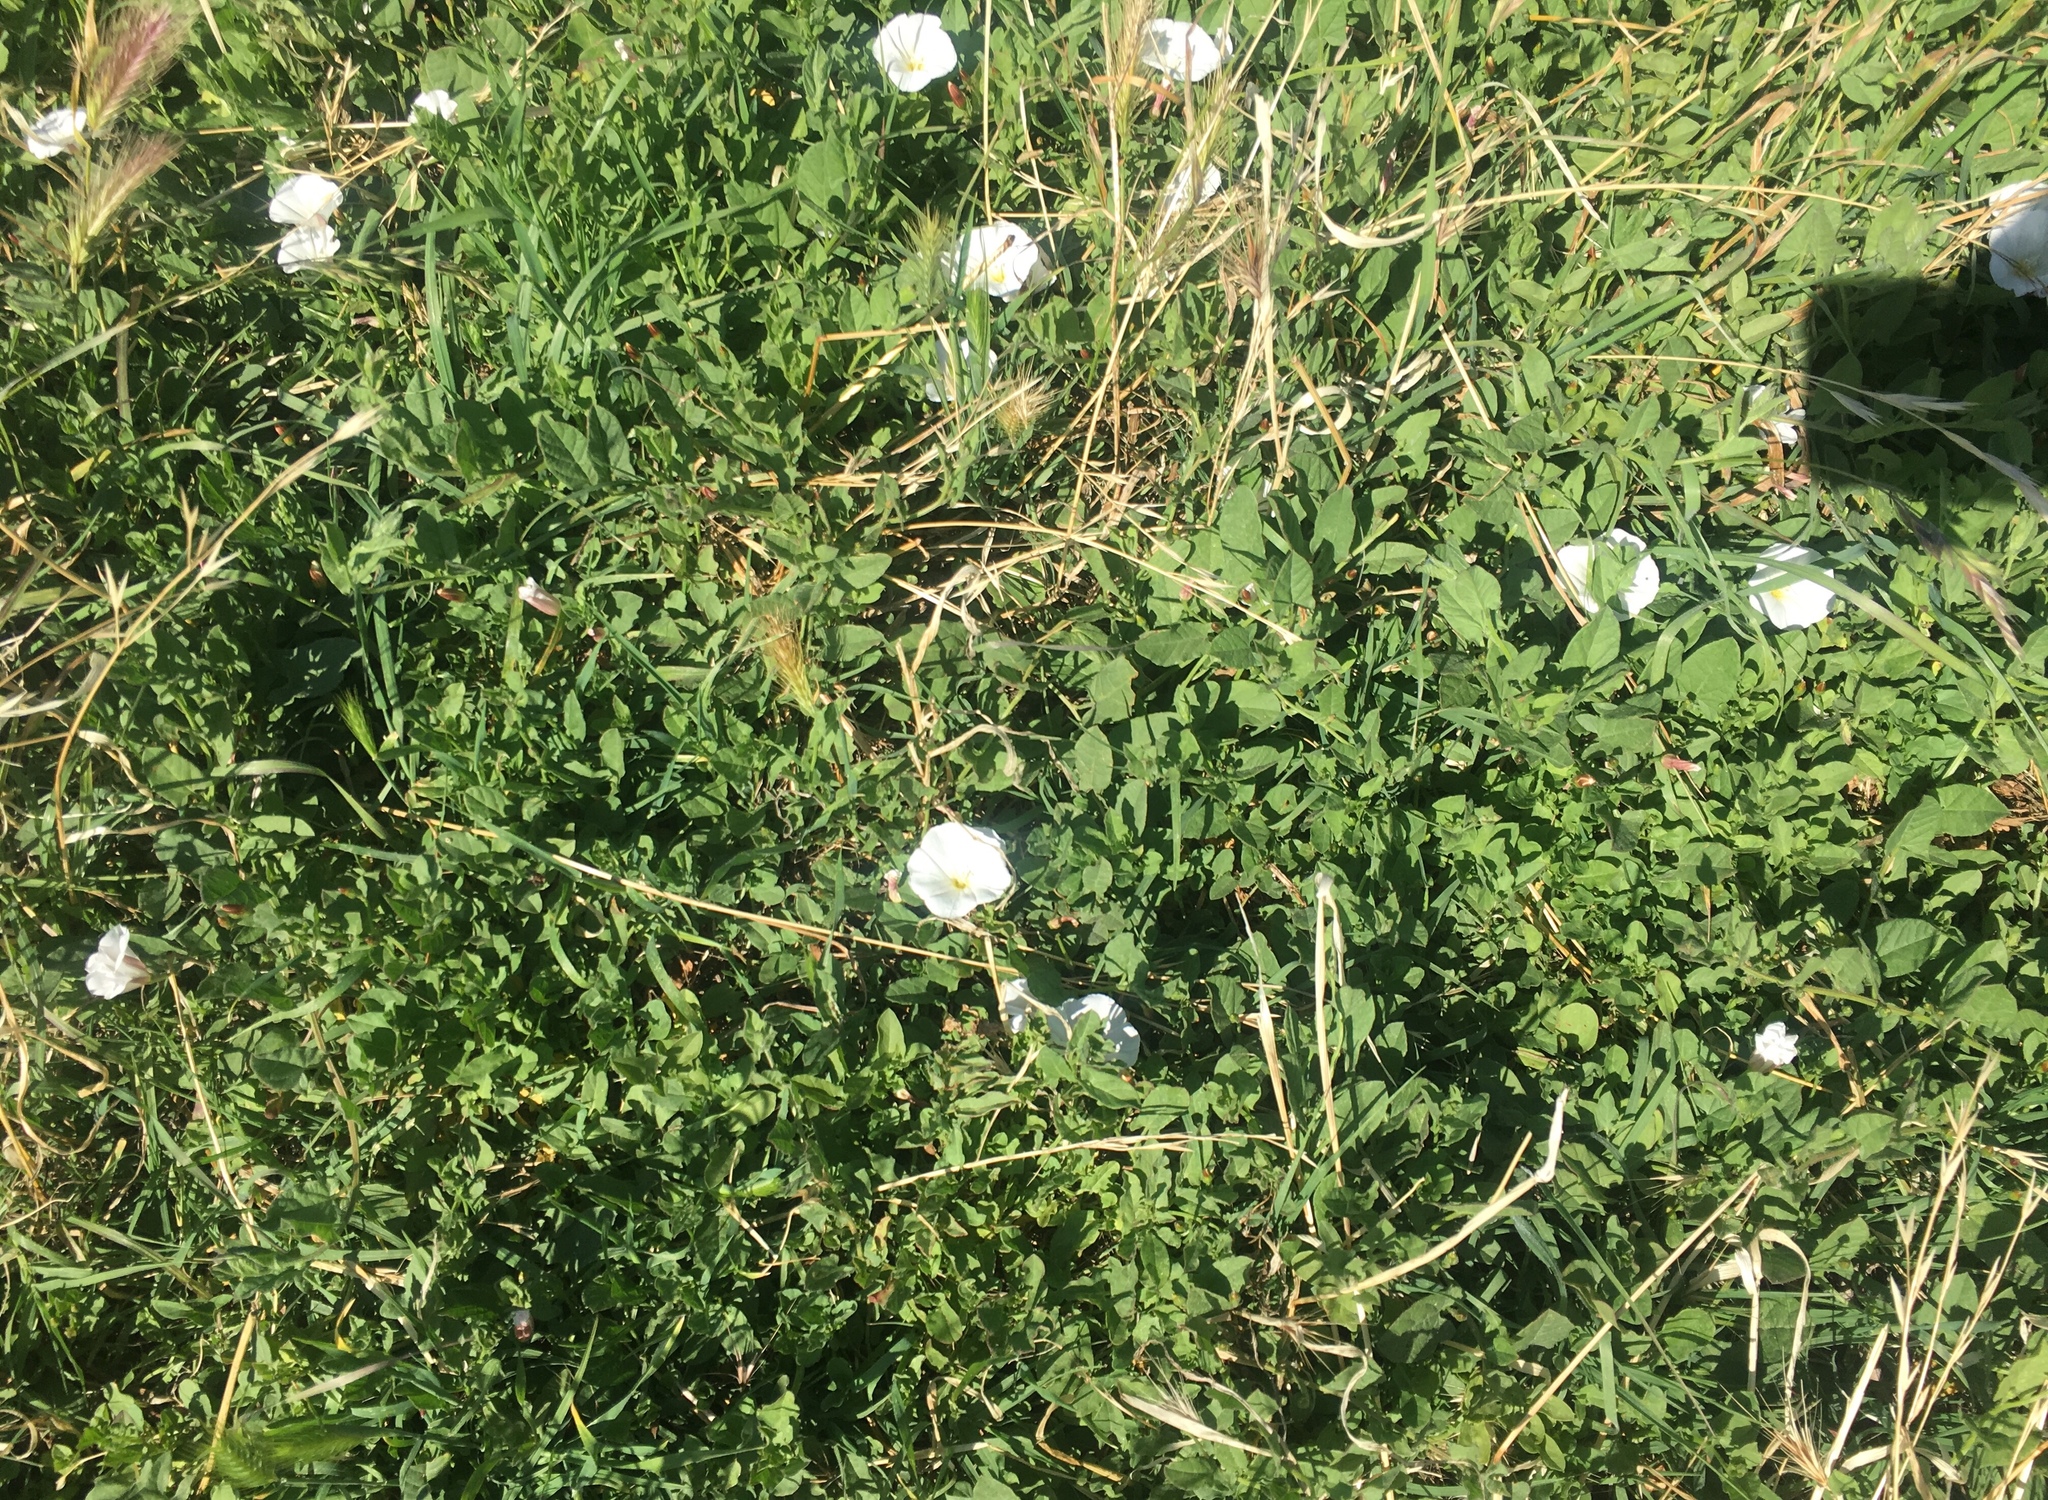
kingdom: Plantae
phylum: Tracheophyta
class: Magnoliopsida
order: Solanales
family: Convolvulaceae
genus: Convolvulus
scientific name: Convolvulus arvensis
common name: Field bindweed
